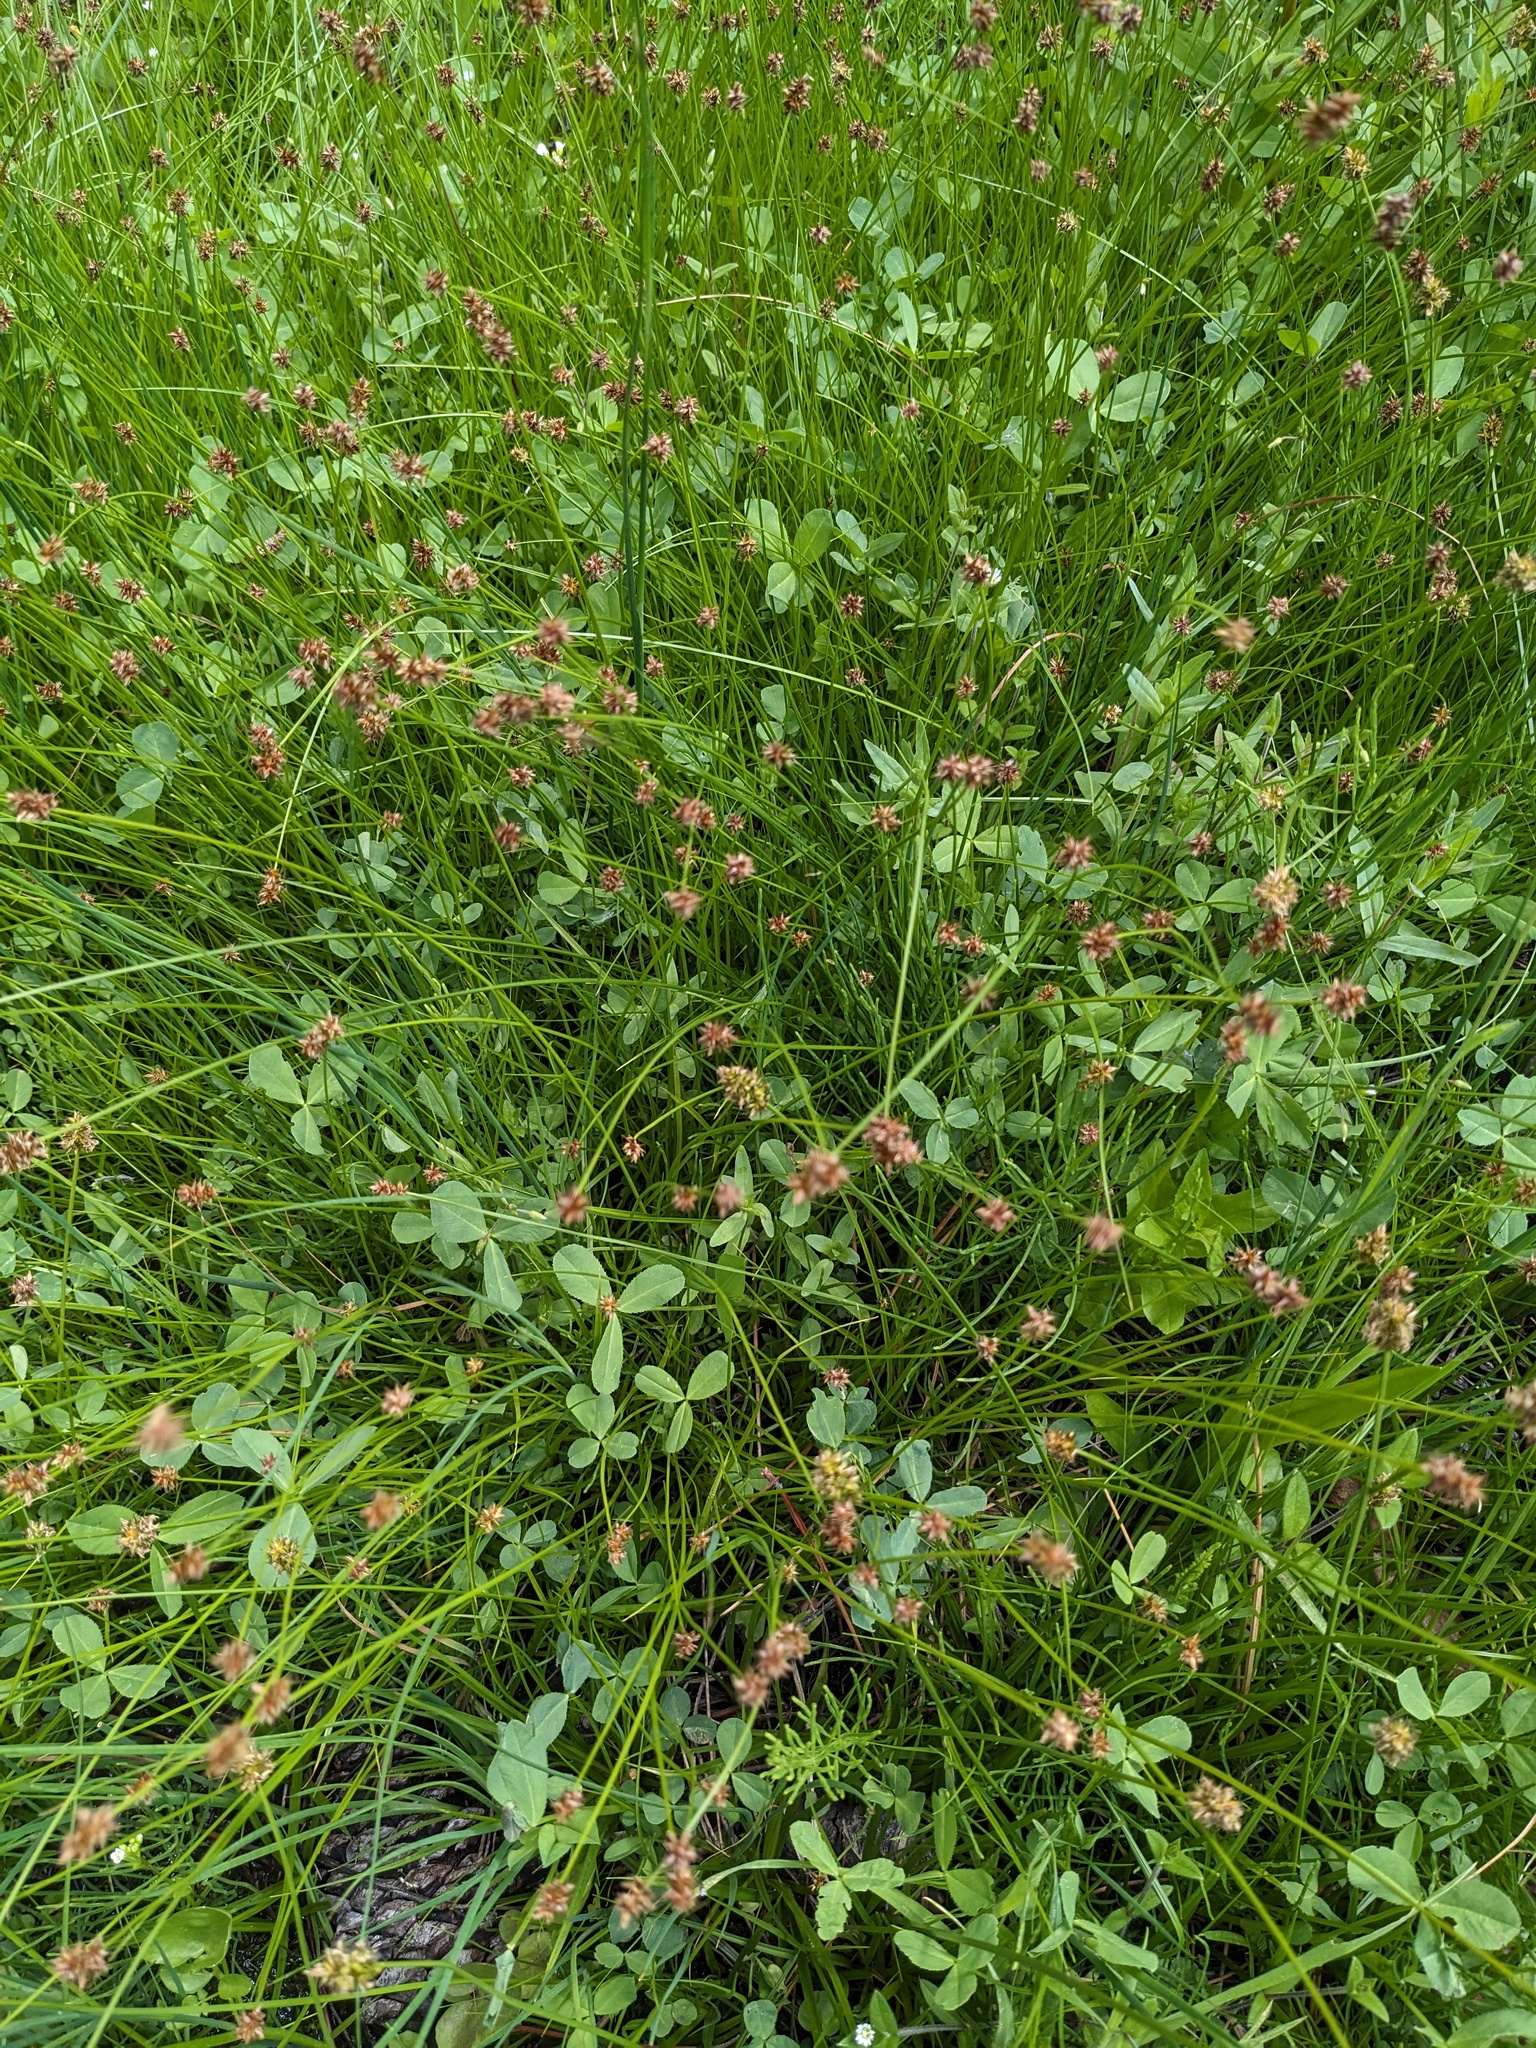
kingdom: Plantae
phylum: Tracheophyta
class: Liliopsida
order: Poales
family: Cyperaceae
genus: Carex
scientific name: Carex jonesii
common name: Jones' sedge
